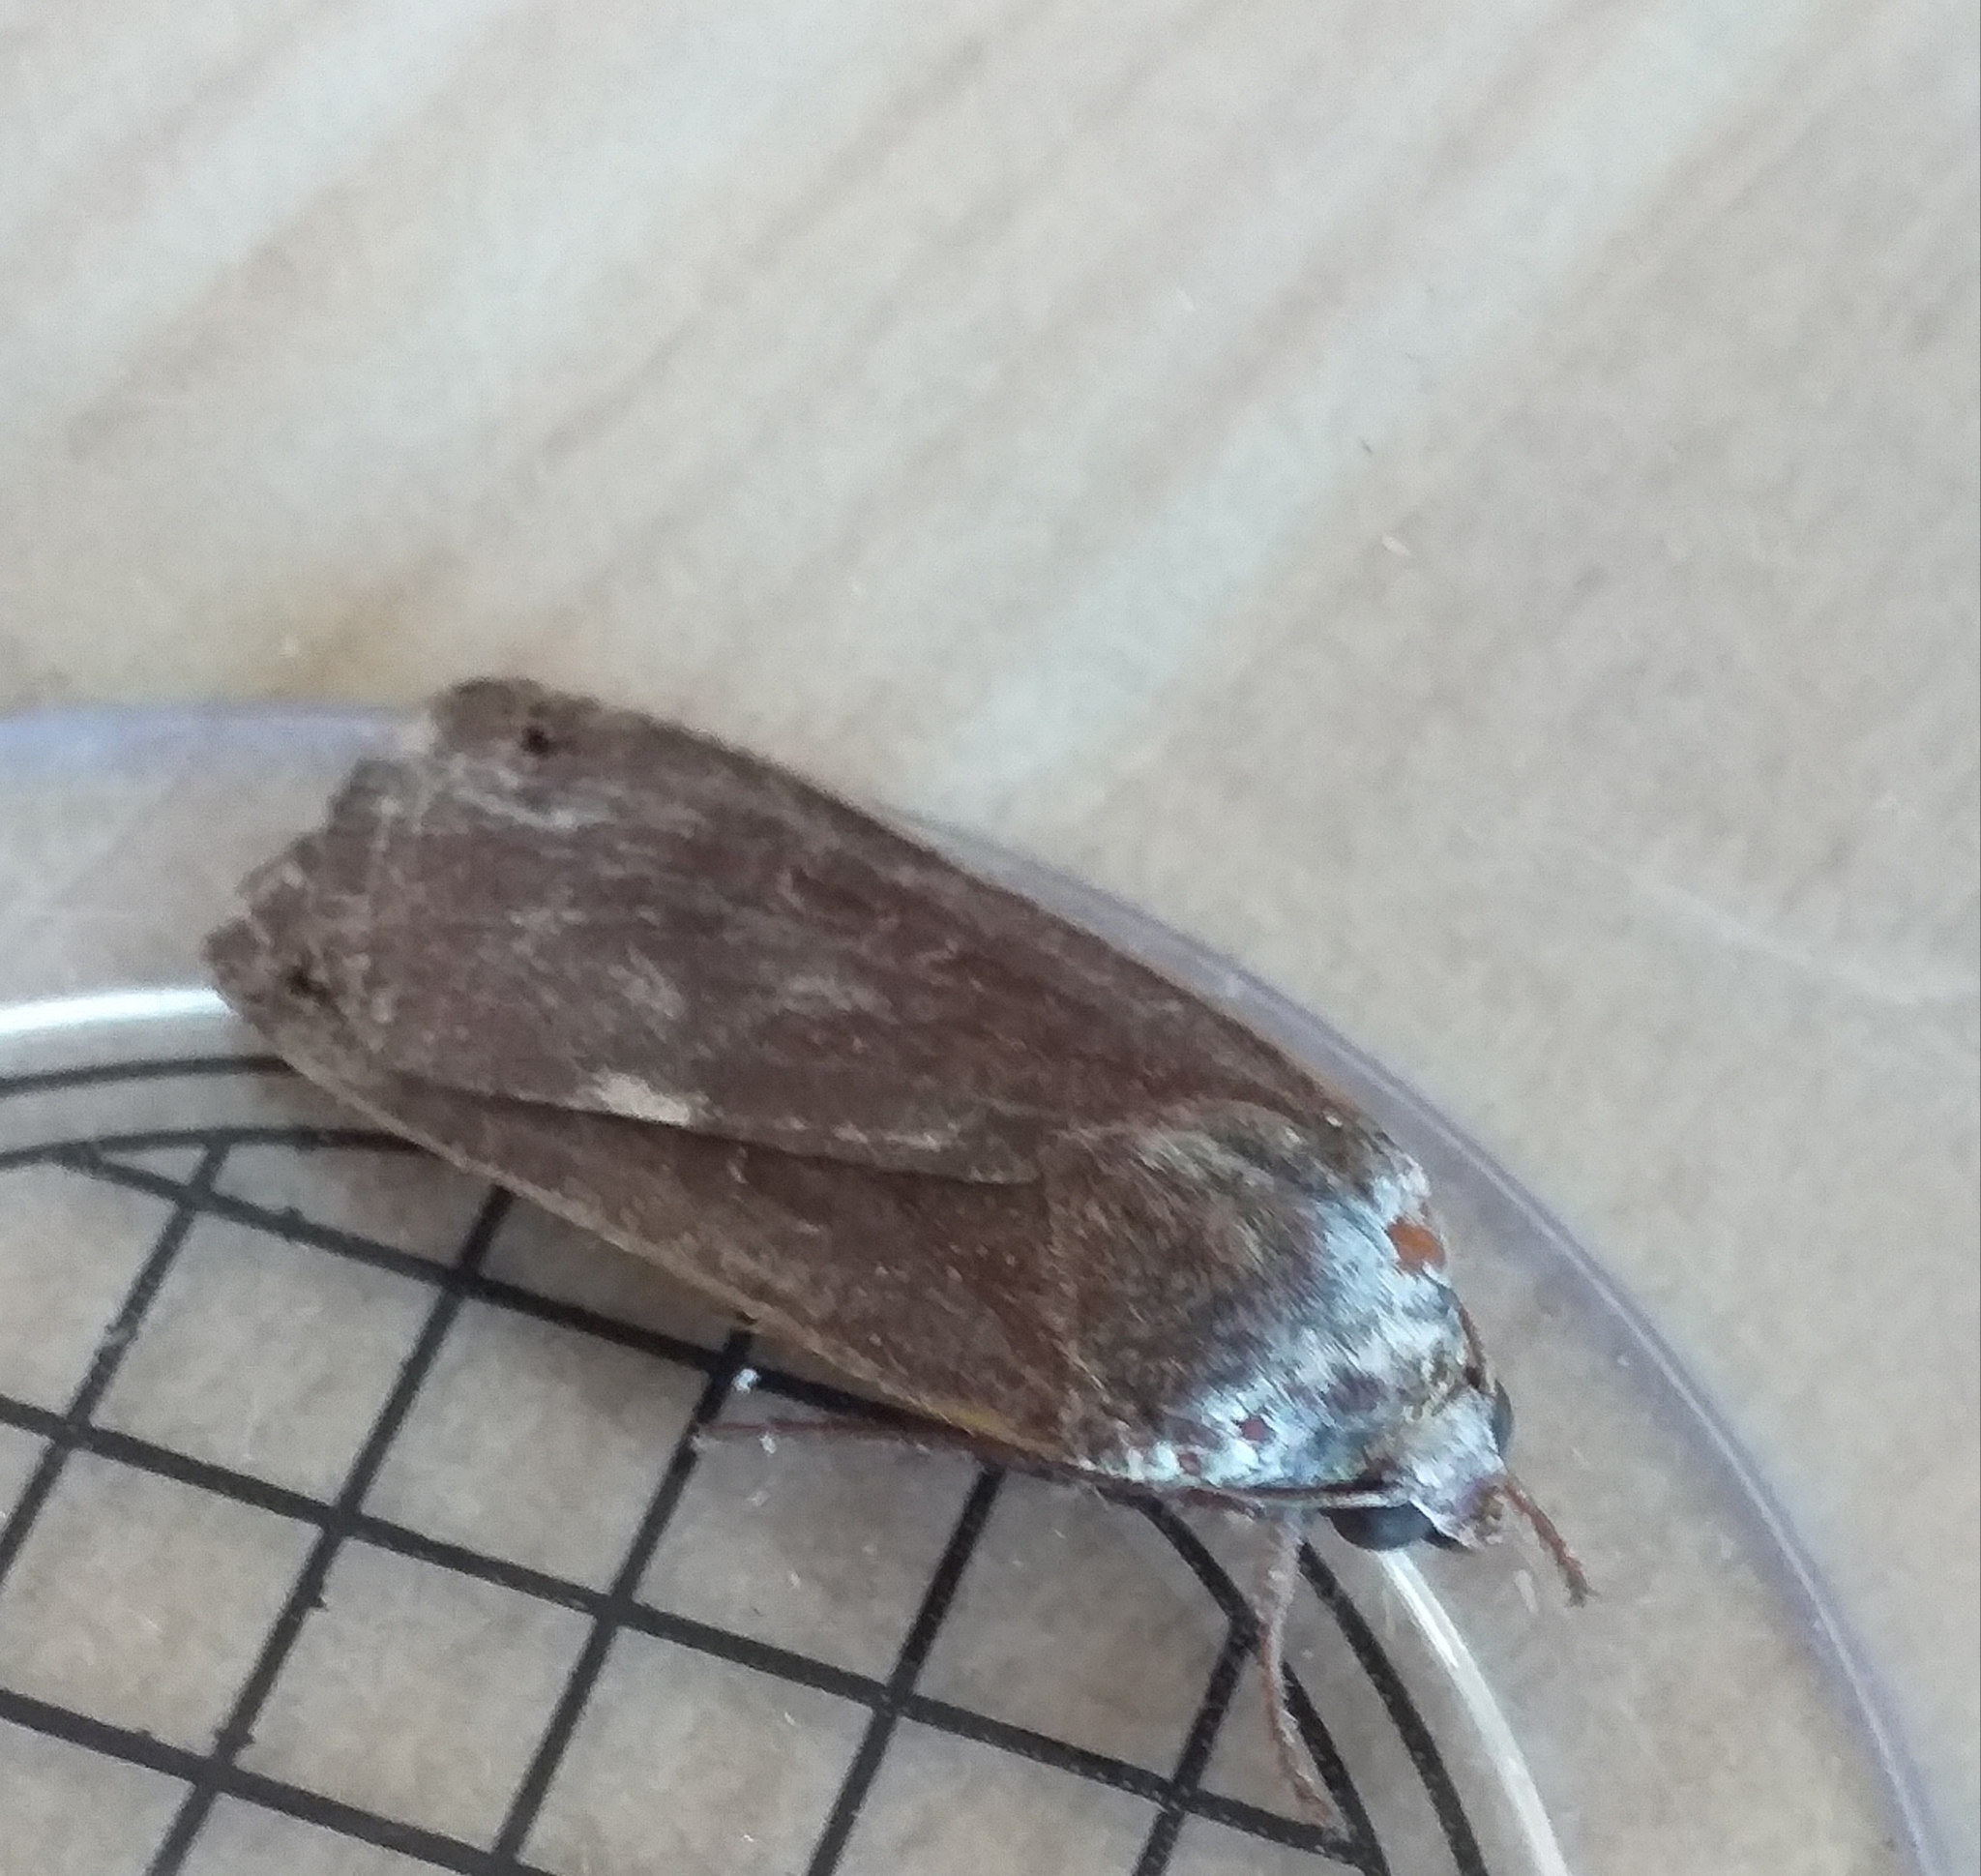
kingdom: Animalia
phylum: Arthropoda
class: Insecta
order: Lepidoptera
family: Noctuidae
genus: Noctua
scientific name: Noctua pronuba
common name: Large yellow underwing
